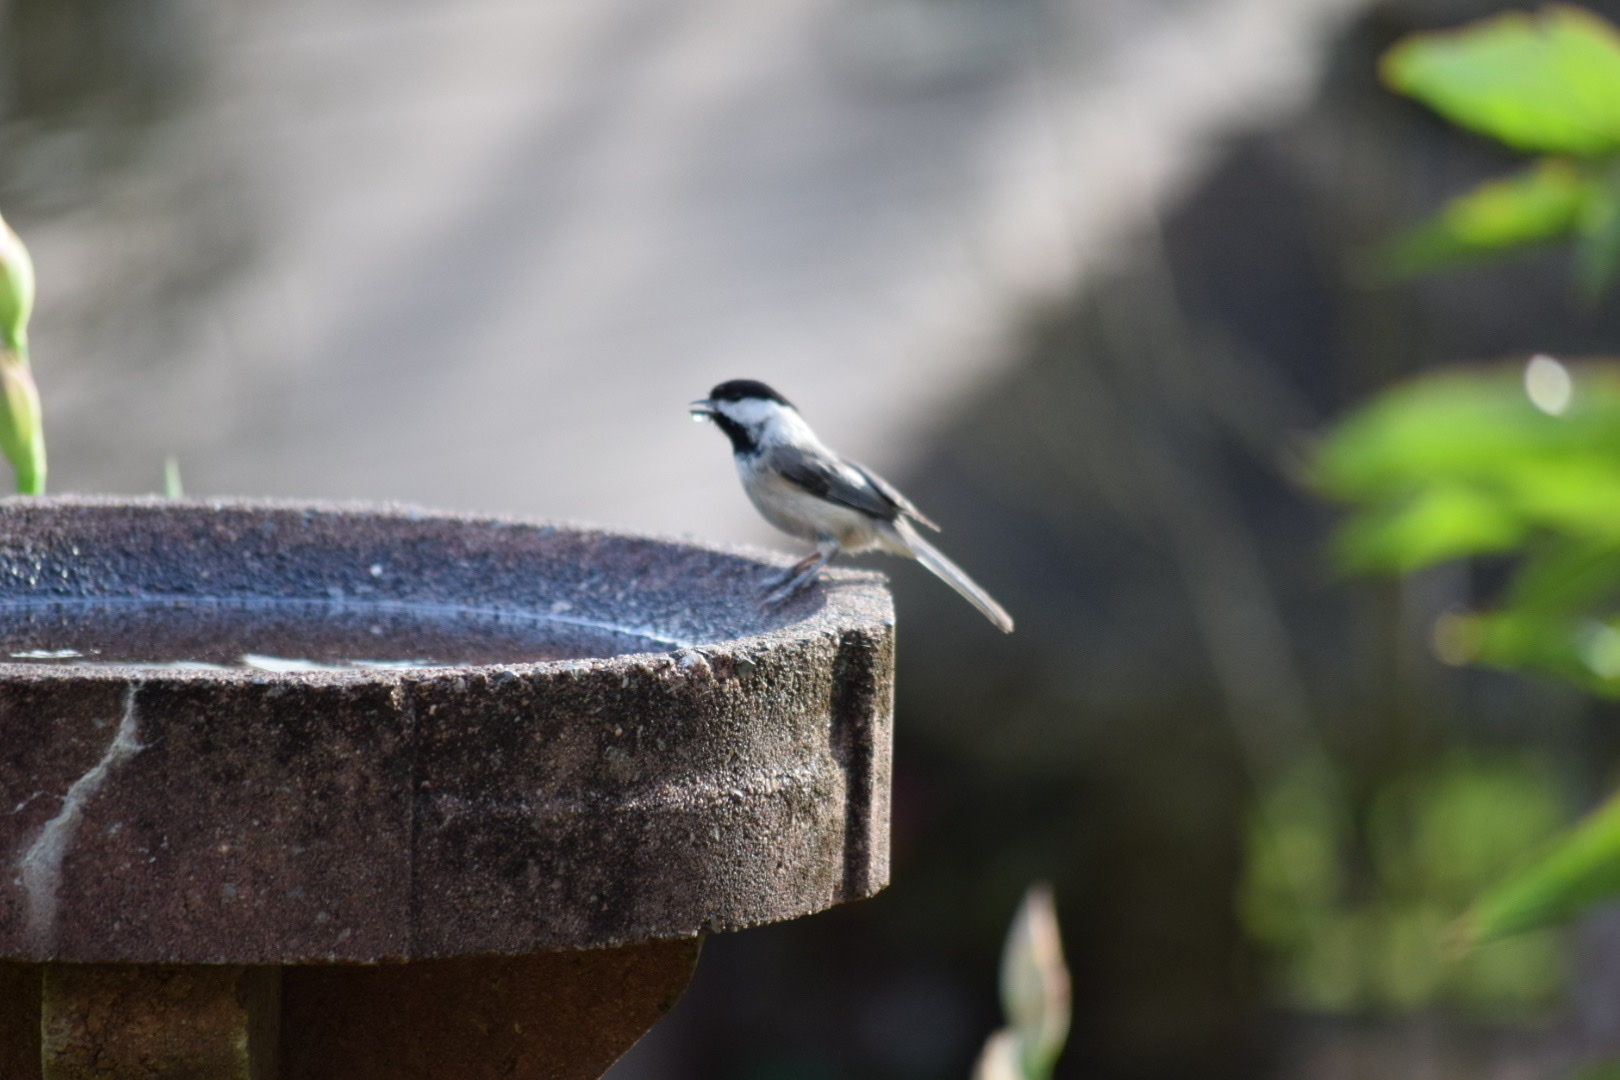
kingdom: Animalia
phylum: Chordata
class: Aves
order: Passeriformes
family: Paridae
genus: Poecile
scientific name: Poecile carolinensis
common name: Carolina chickadee
